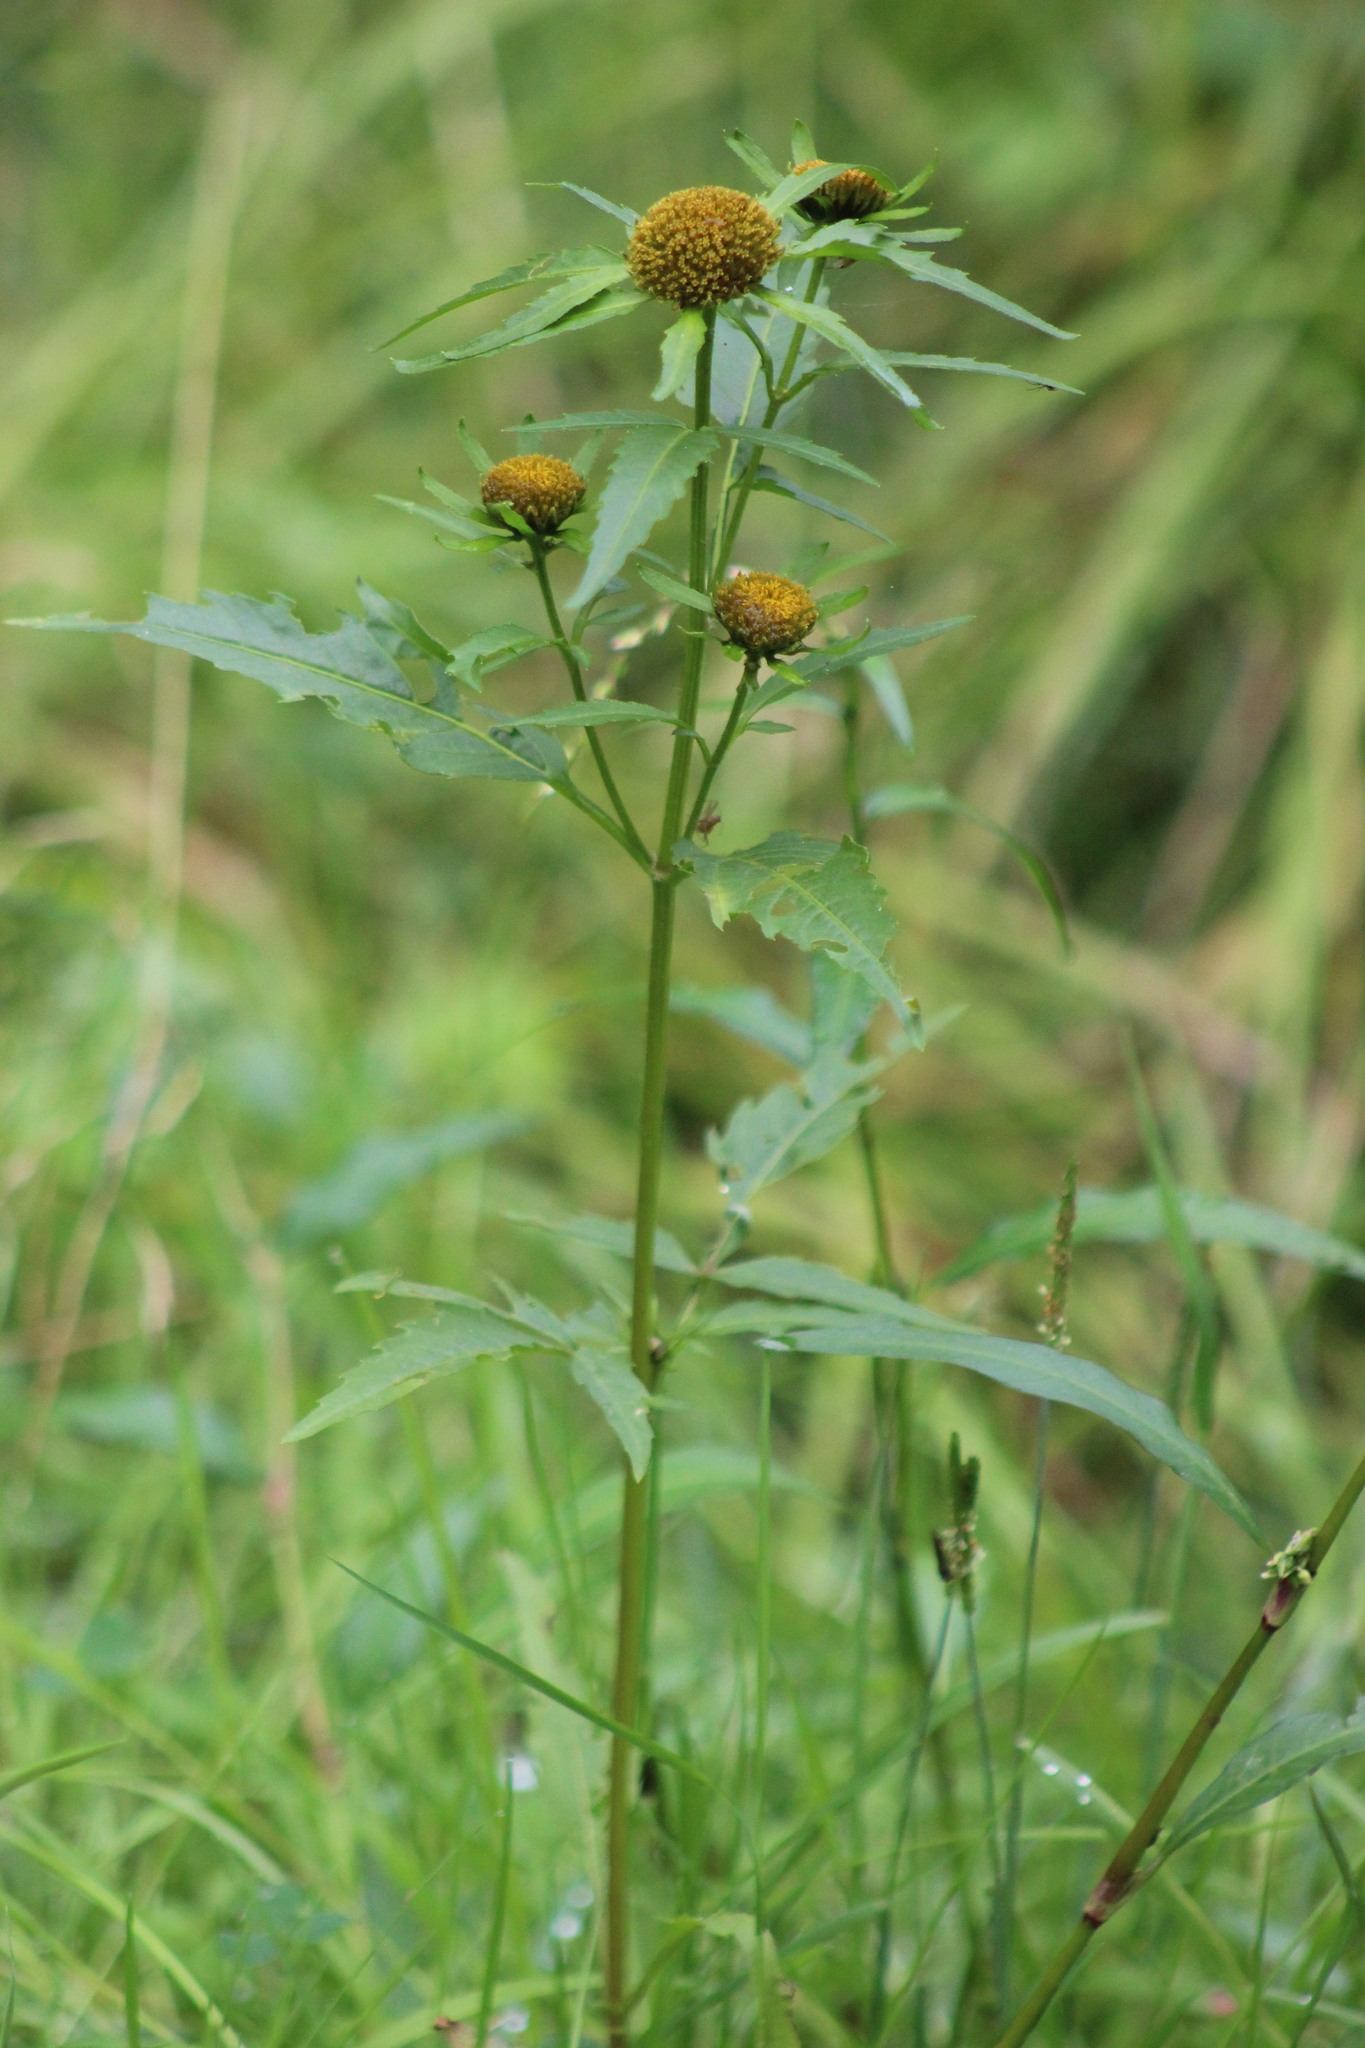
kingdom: Plantae
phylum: Tracheophyta
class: Magnoliopsida
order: Asterales
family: Asteraceae
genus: Bidens
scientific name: Bidens radiata
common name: Radiating bur-marigold
